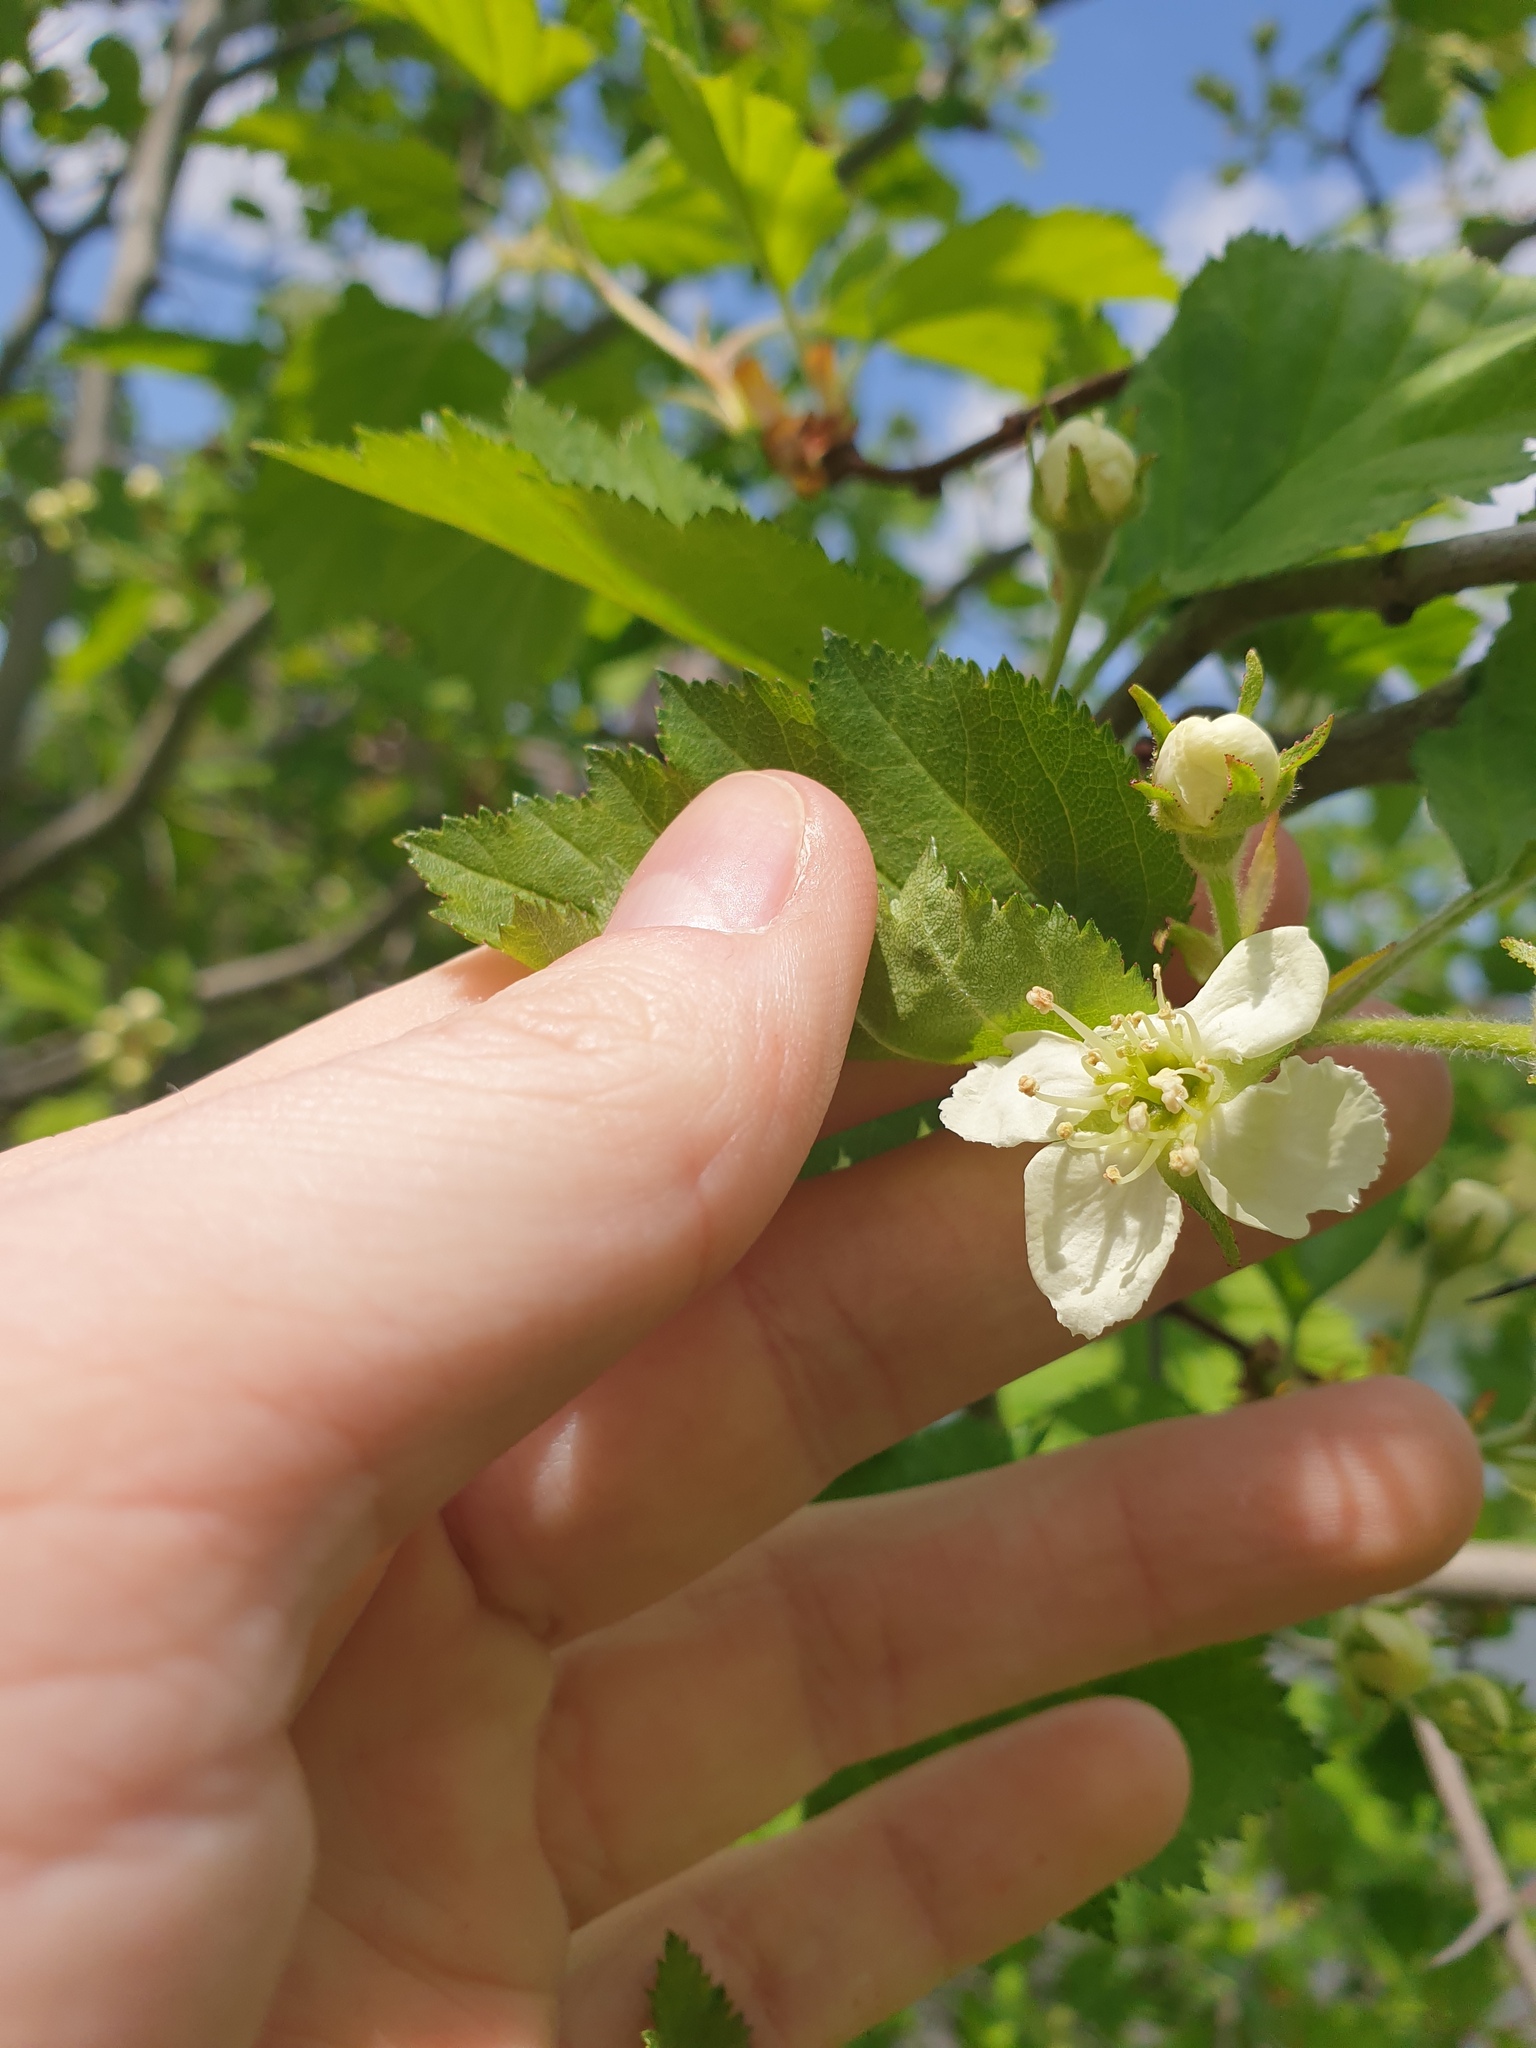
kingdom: Plantae
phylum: Tracheophyta
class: Magnoliopsida
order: Rosales
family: Rosaceae
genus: Crataegus
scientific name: Crataegus submollis
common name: Hairy cockspurthorn
